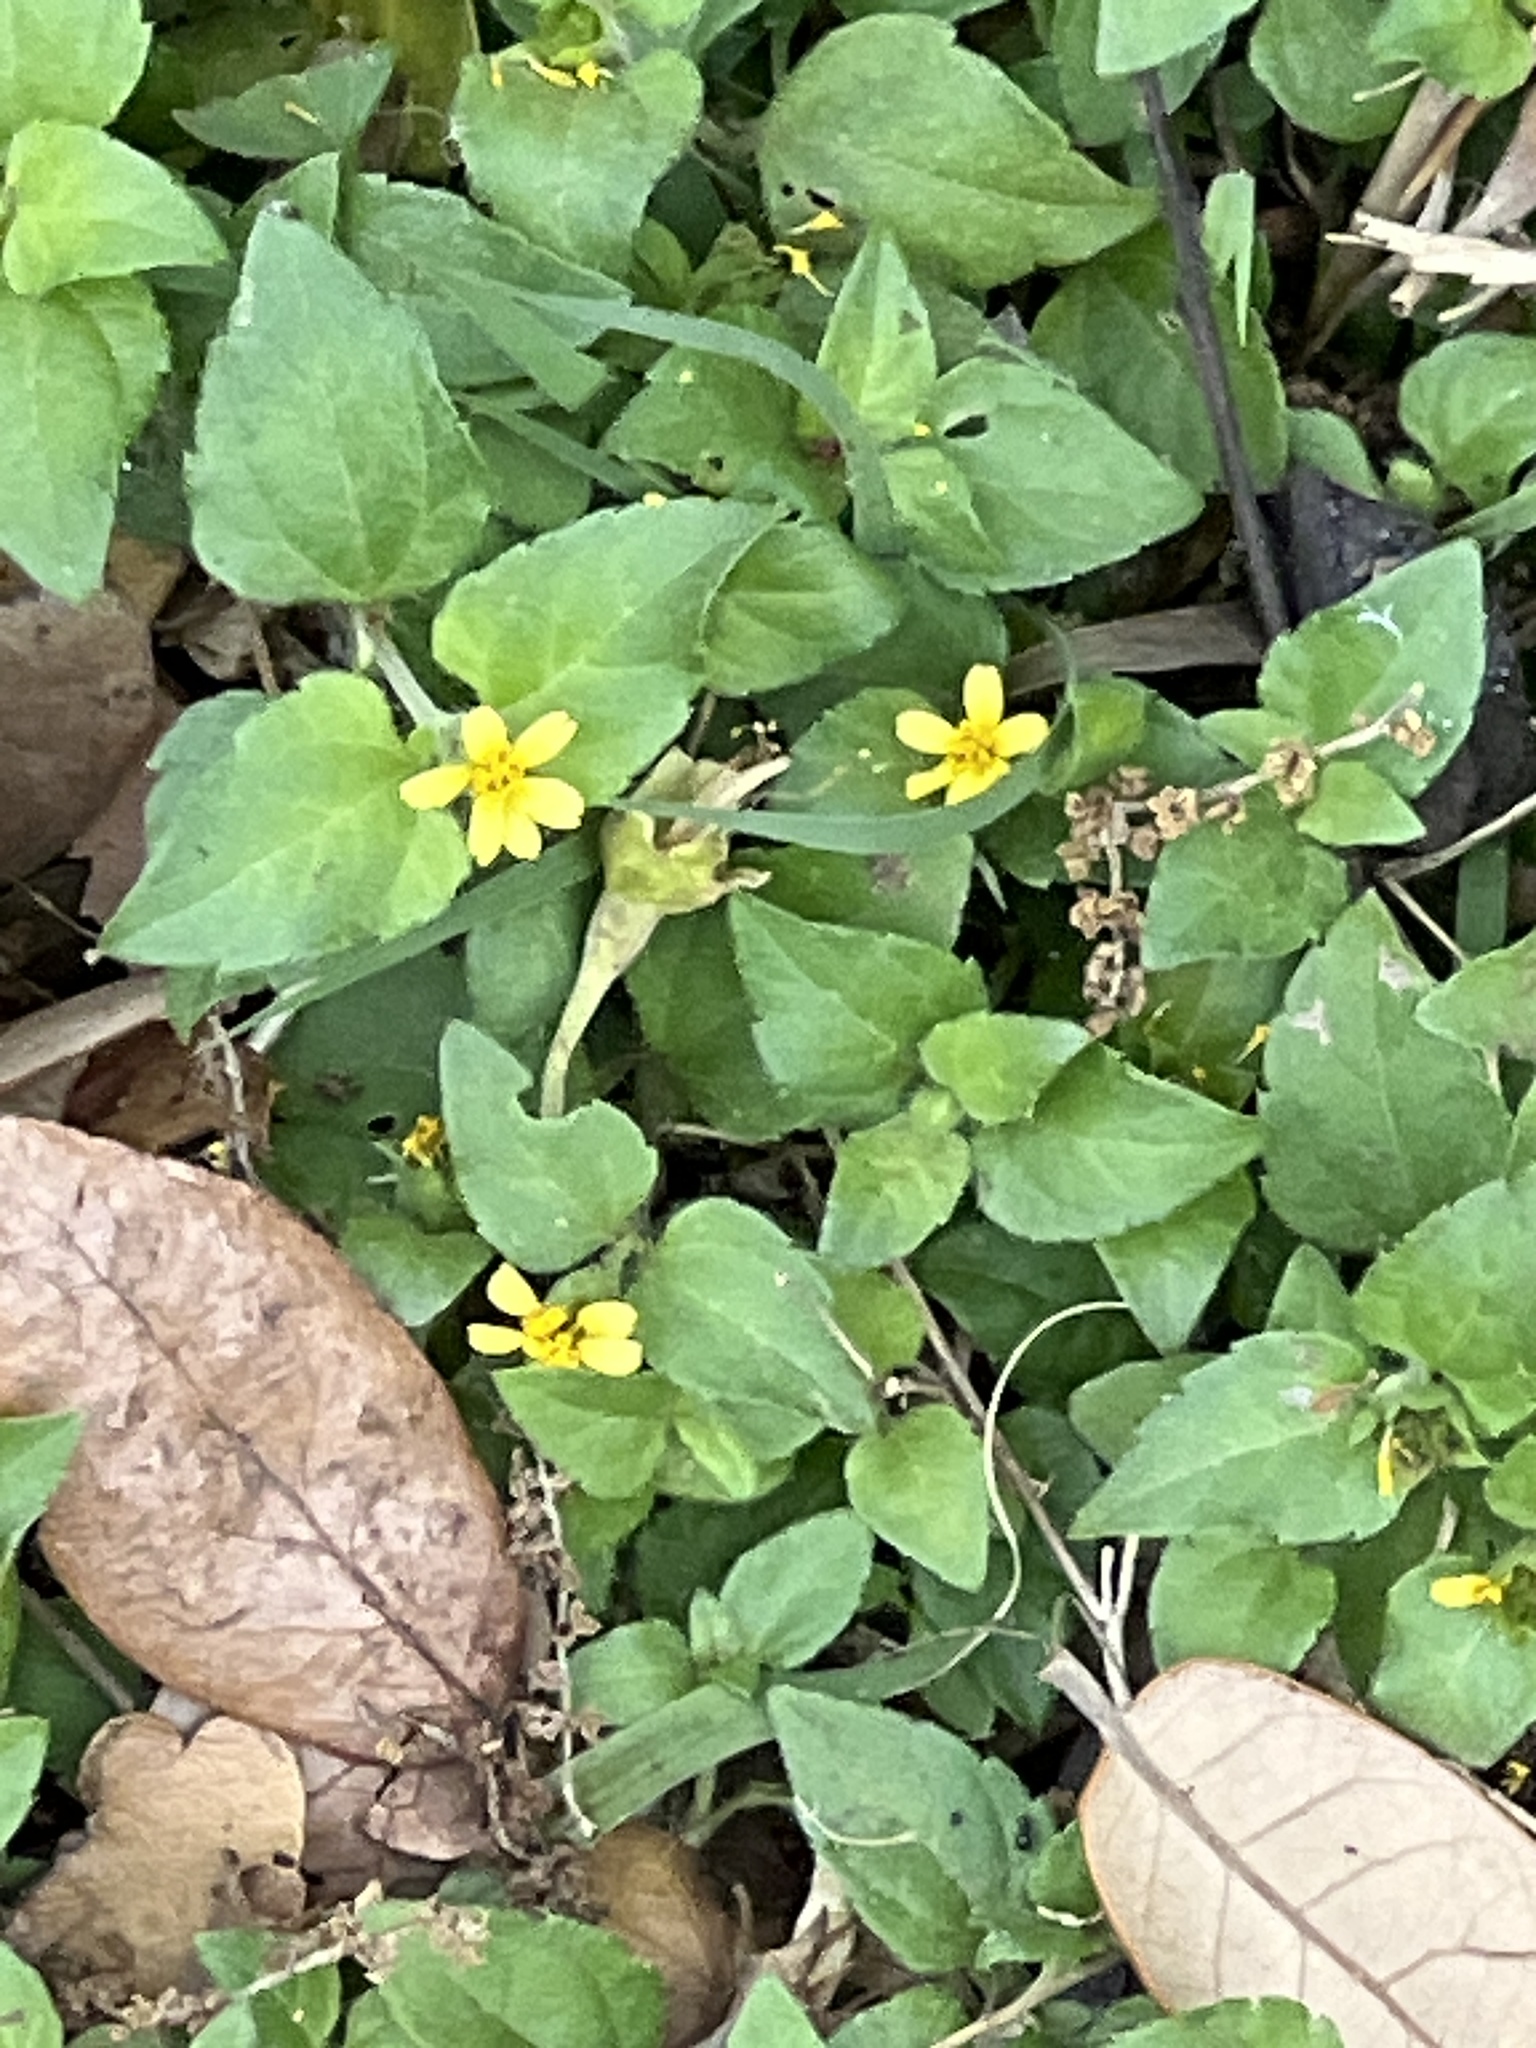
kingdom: Plantae
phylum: Tracheophyta
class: Magnoliopsida
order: Asterales
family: Asteraceae
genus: Calyptocarpus
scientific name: Calyptocarpus vialis
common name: Straggler daisy
